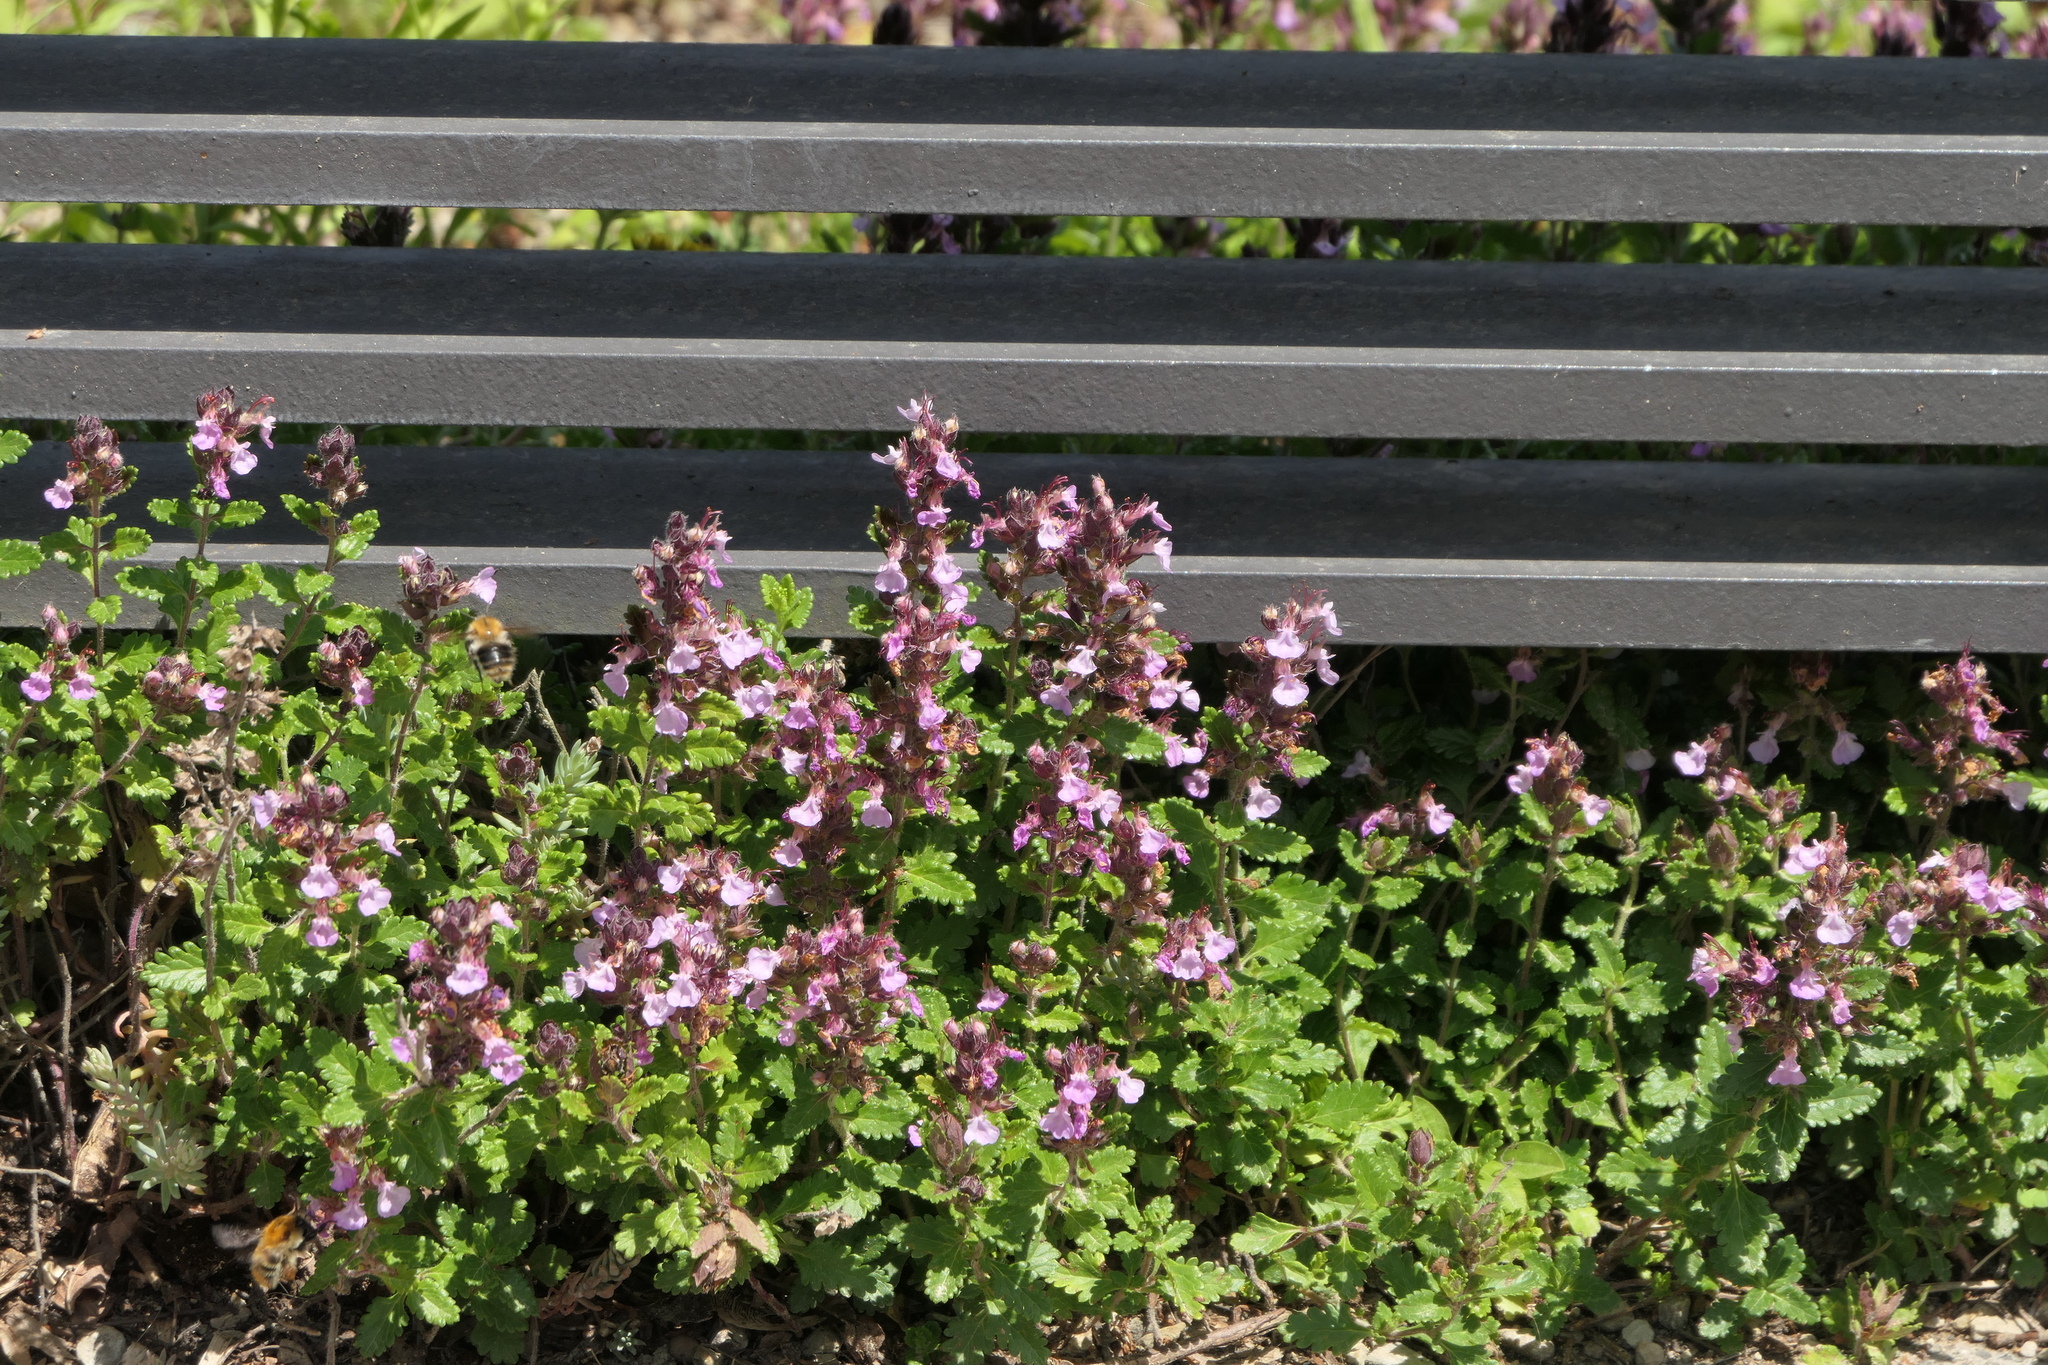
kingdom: Plantae
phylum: Tracheophyta
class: Magnoliopsida
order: Lamiales
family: Lamiaceae
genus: Teucrium
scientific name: Teucrium chamaedrys
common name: Wall germander
